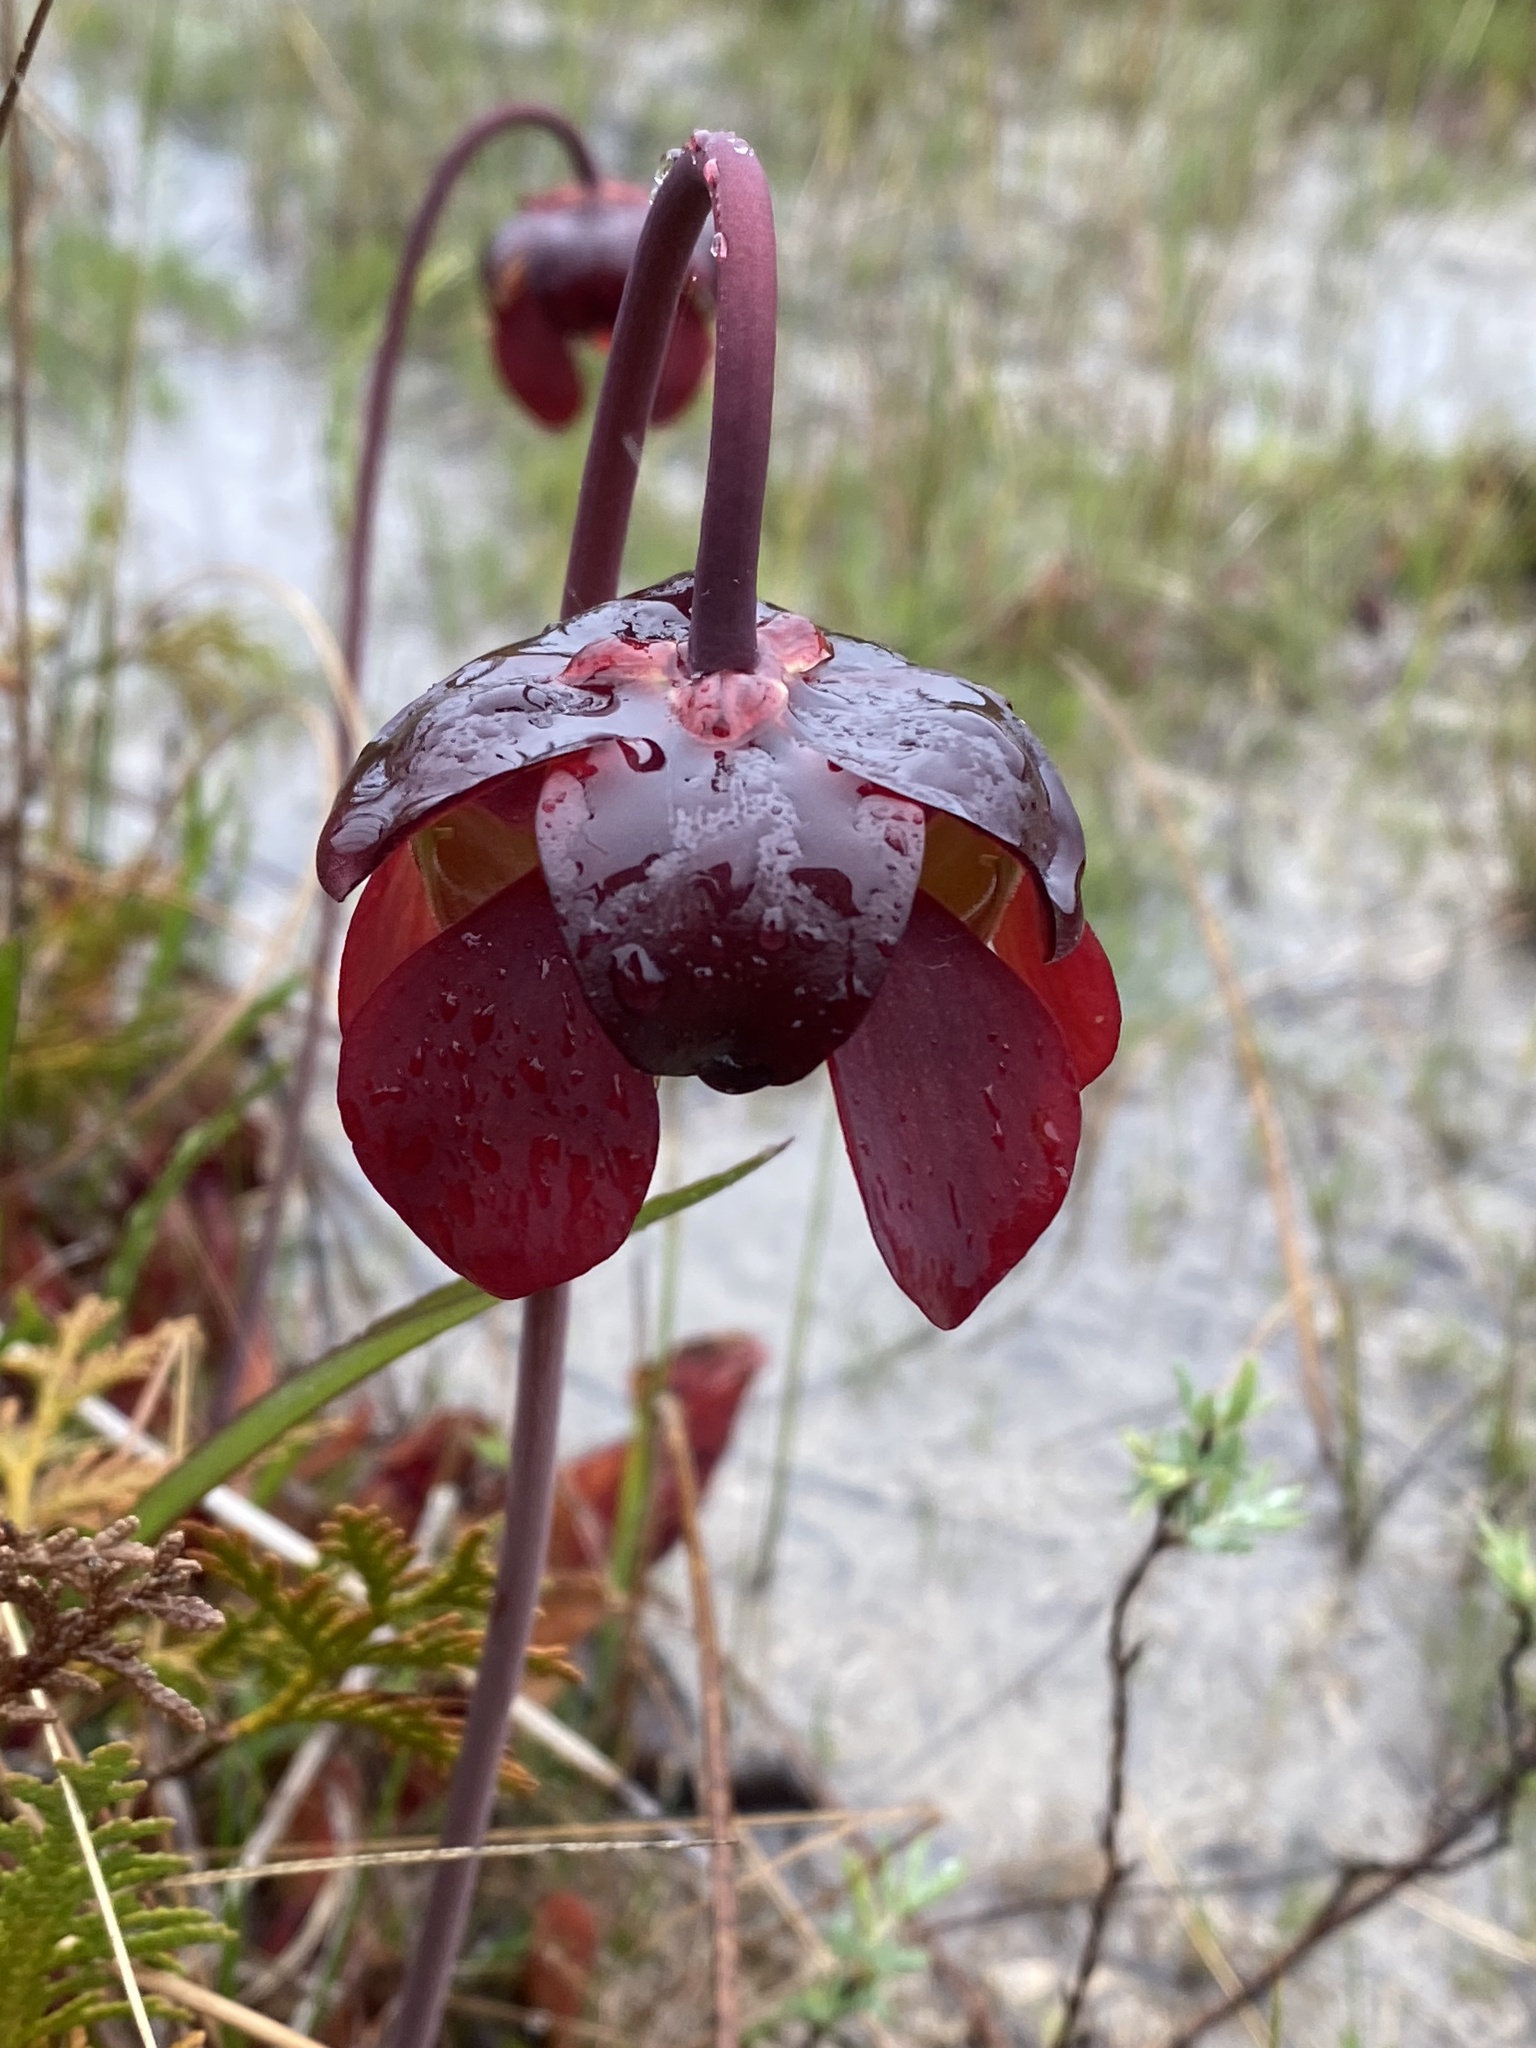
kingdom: Plantae
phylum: Tracheophyta
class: Magnoliopsida
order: Ericales
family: Sarraceniaceae
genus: Sarracenia
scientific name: Sarracenia purpurea
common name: Pitcherplant
